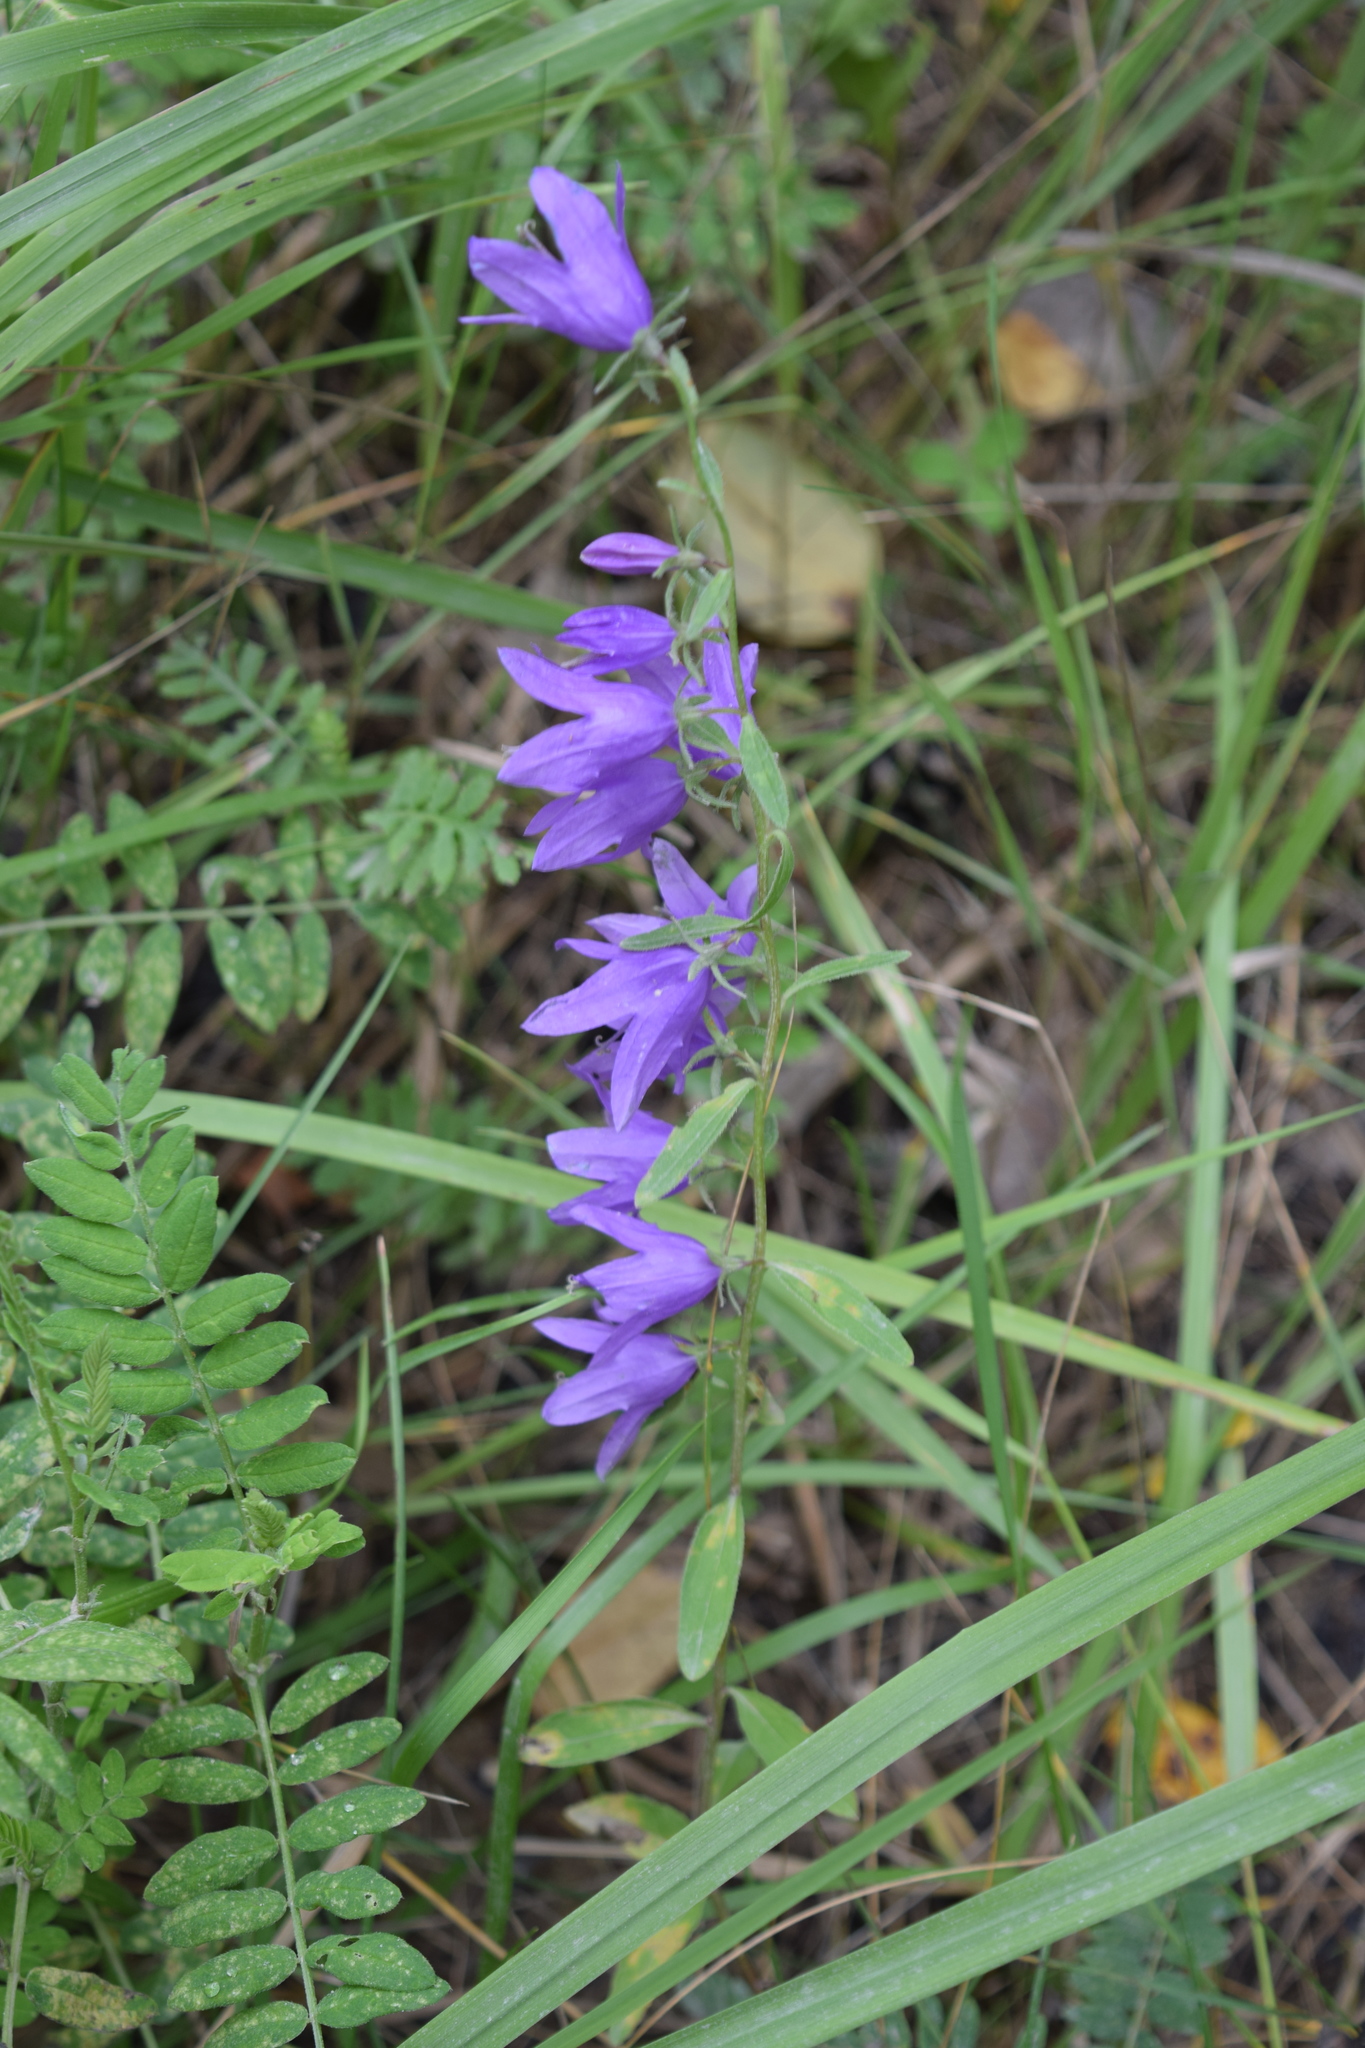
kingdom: Plantae
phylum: Tracheophyta
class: Magnoliopsida
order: Asterales
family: Campanulaceae
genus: Campanula
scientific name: Campanula rapunculoides
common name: Creeping bellflower
